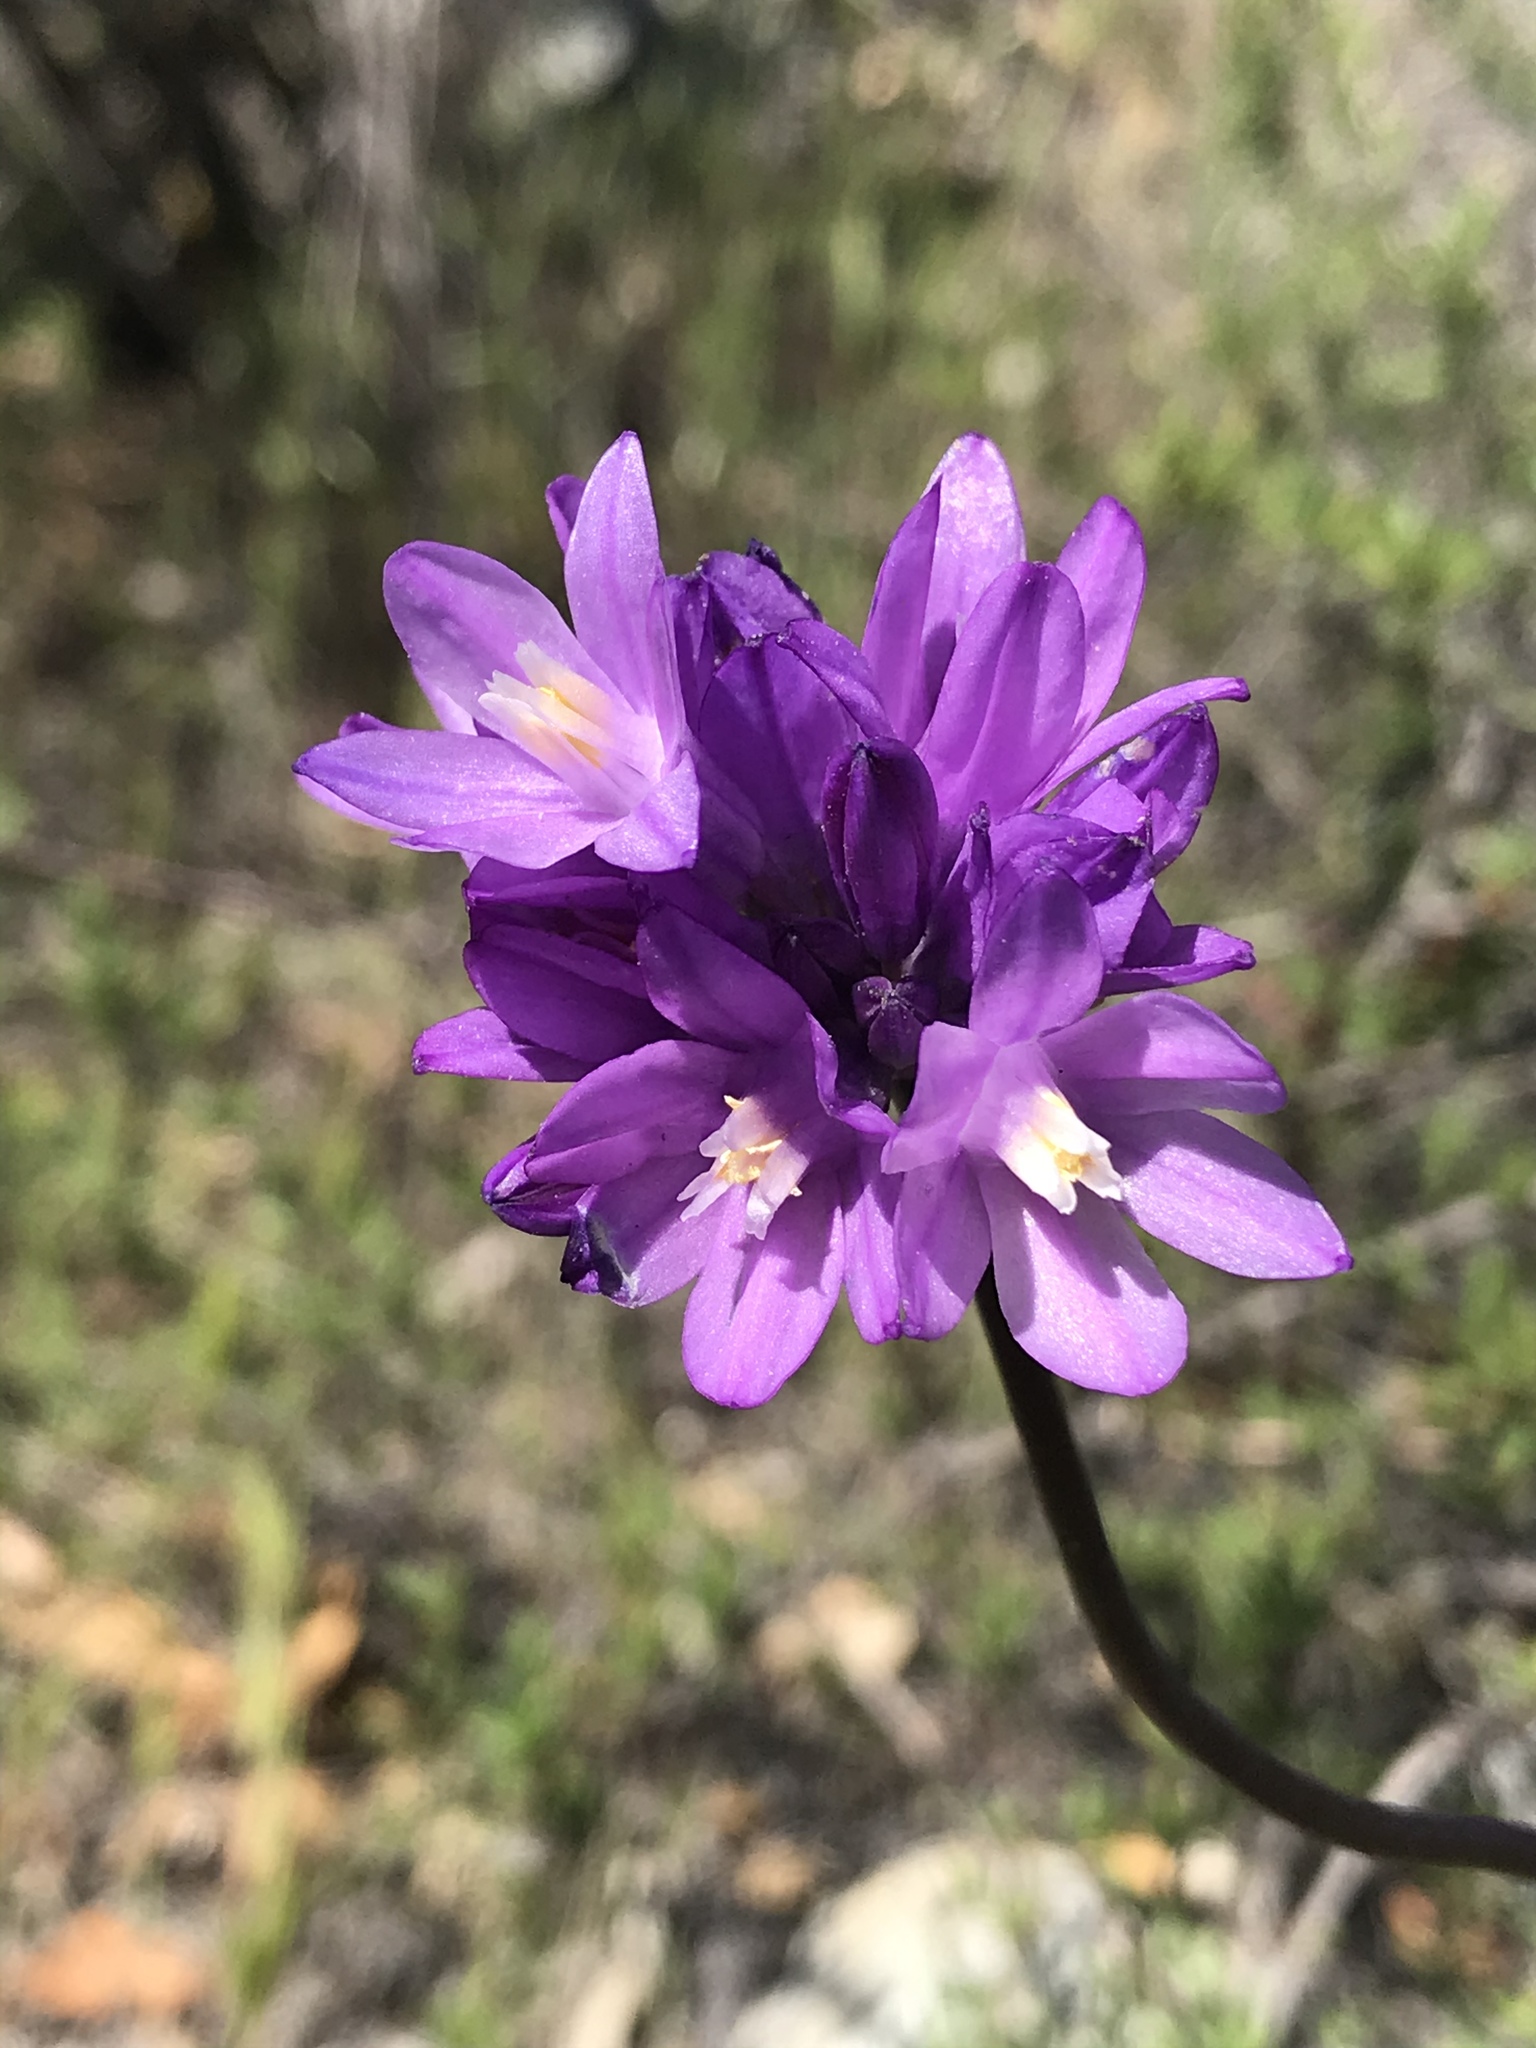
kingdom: Plantae
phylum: Tracheophyta
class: Liliopsida
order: Asparagales
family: Asparagaceae
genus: Dipterostemon
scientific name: Dipterostemon capitatus
